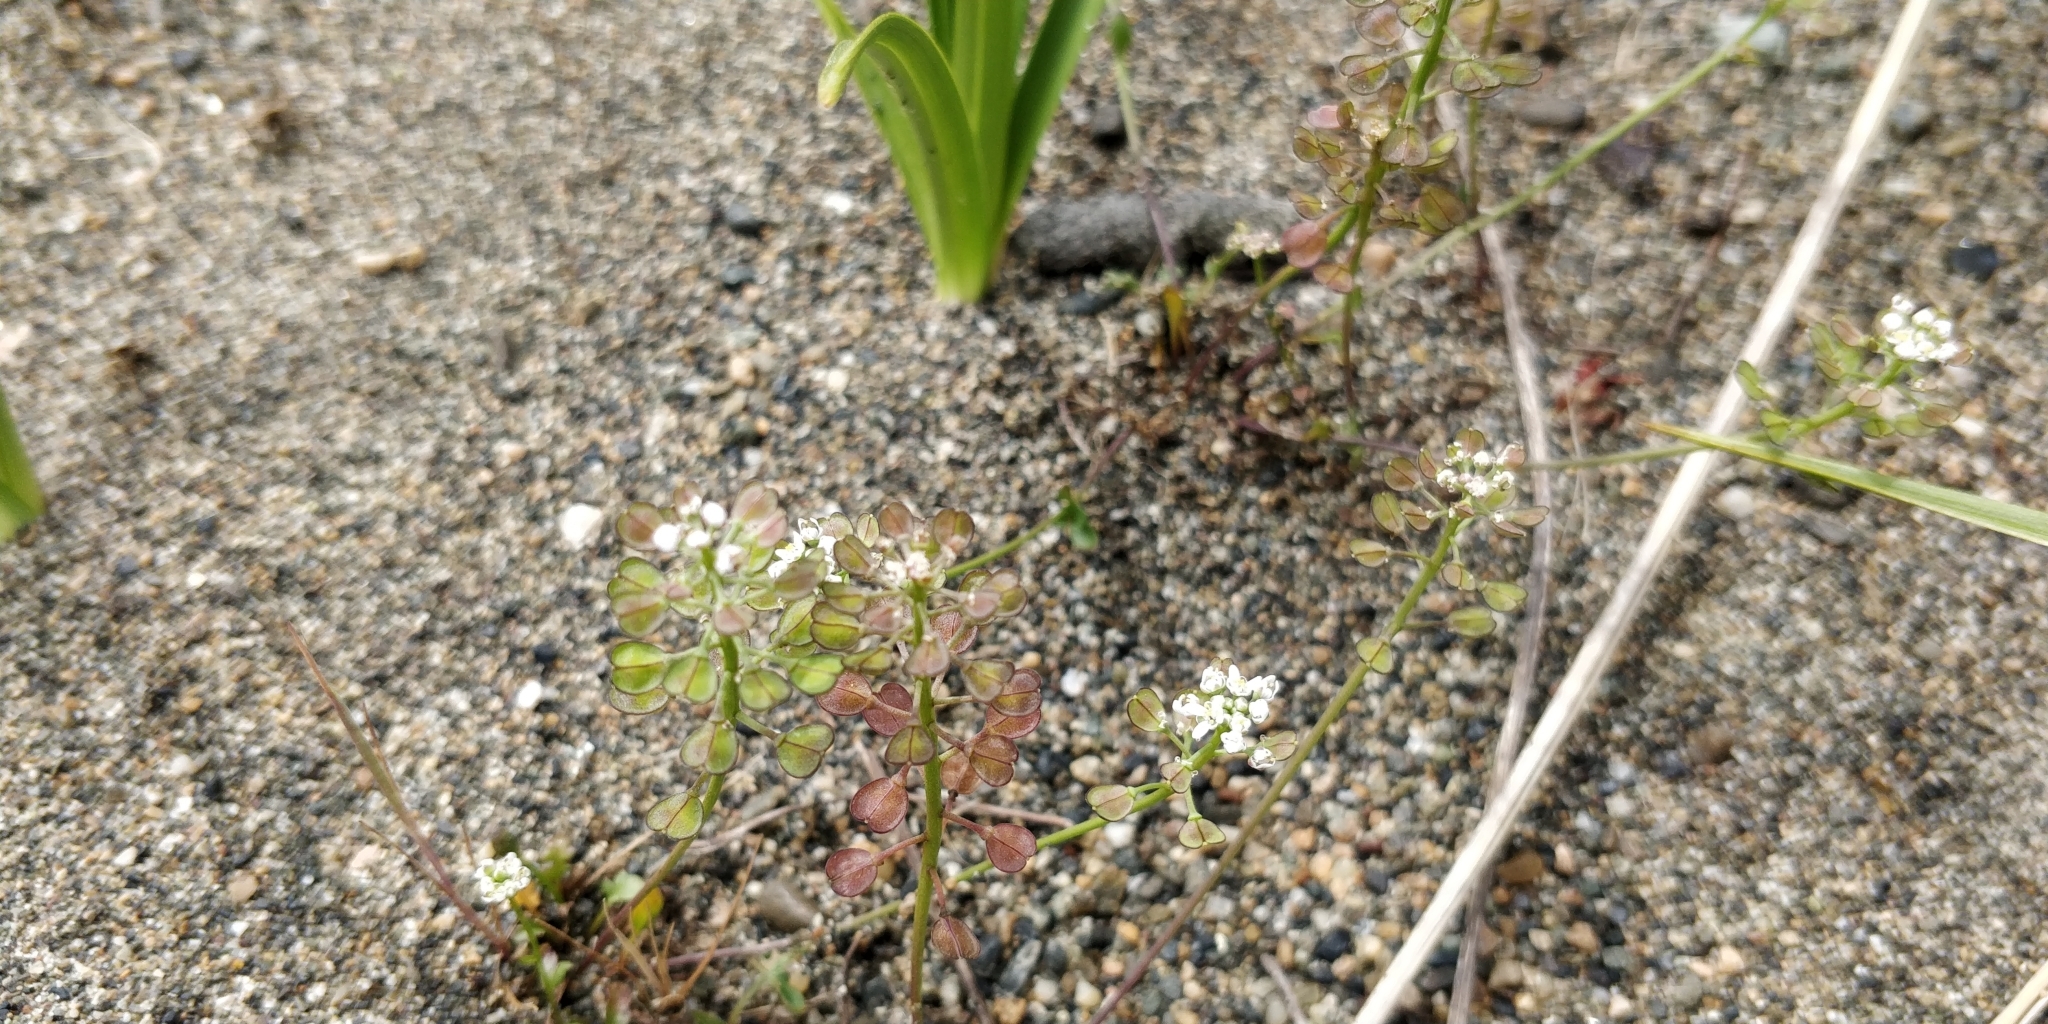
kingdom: Plantae
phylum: Tracheophyta
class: Magnoliopsida
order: Brassicales
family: Brassicaceae
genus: Teesdalia
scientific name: Teesdalia nudicaulis
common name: Shepherd's cress
